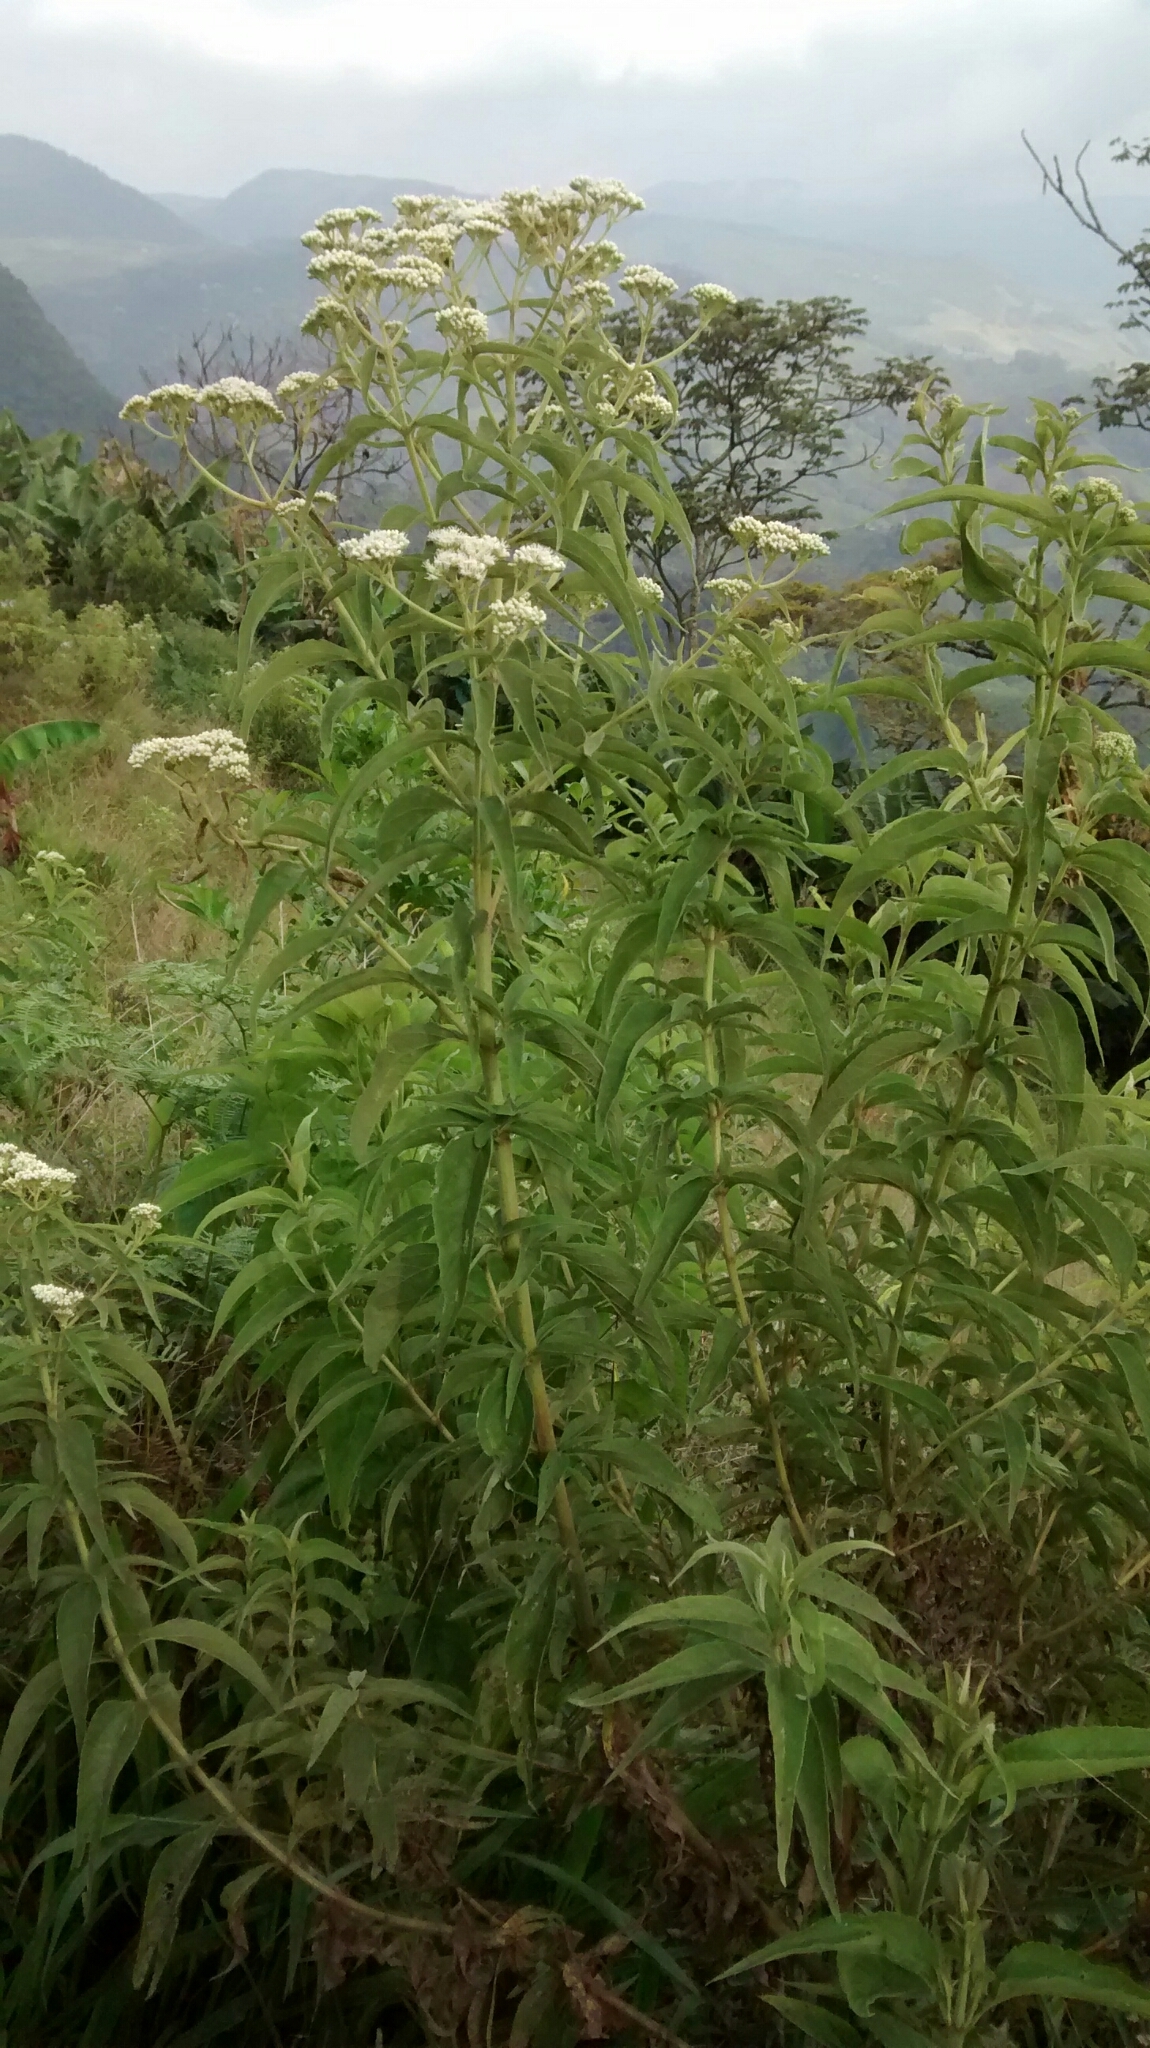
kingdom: Plantae
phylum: Tracheophyta
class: Magnoliopsida
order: Asterales
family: Asteraceae
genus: Austroeupatorium
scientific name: Austroeupatorium inulifolium
